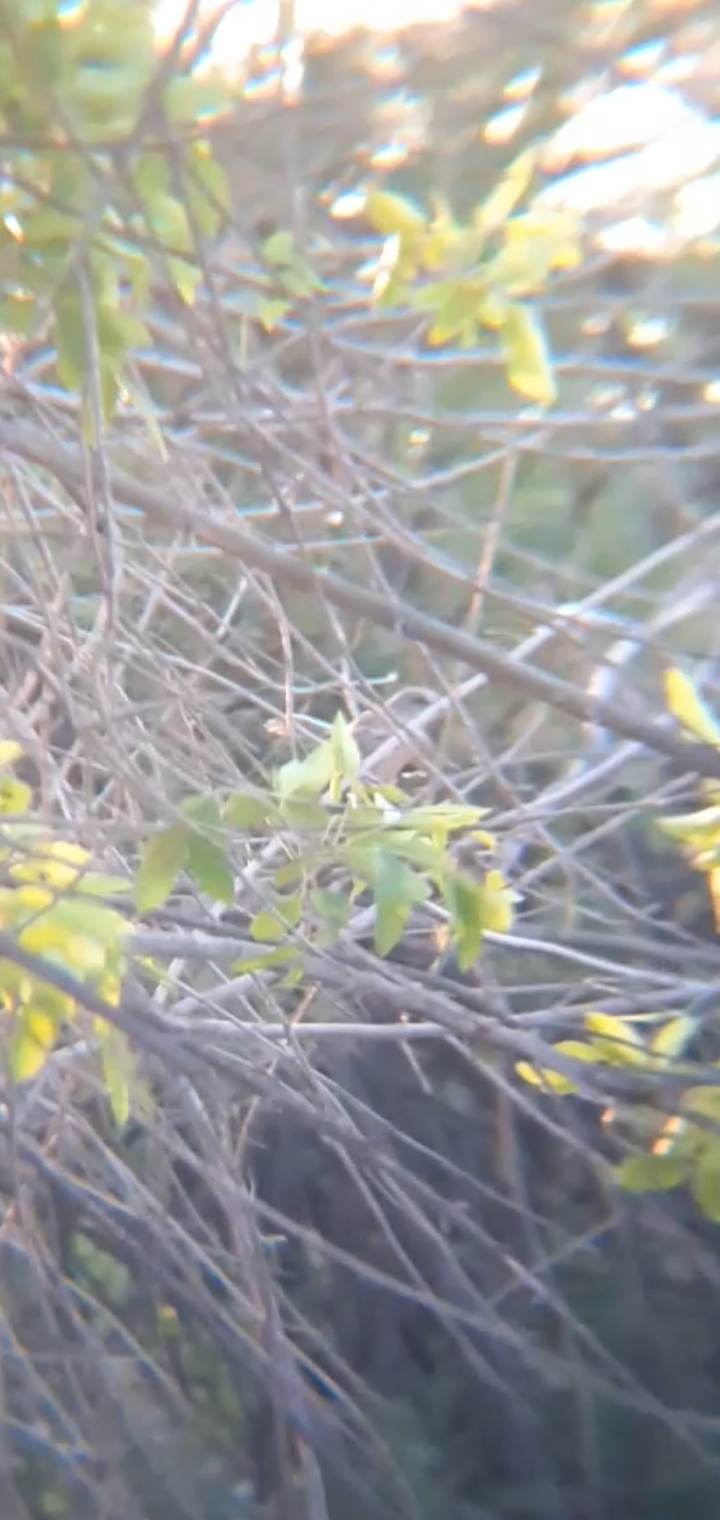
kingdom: Animalia
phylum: Chordata
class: Aves
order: Passeriformes
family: Mimidae
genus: Mimus
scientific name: Mimus polyglottos
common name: Northern mockingbird
